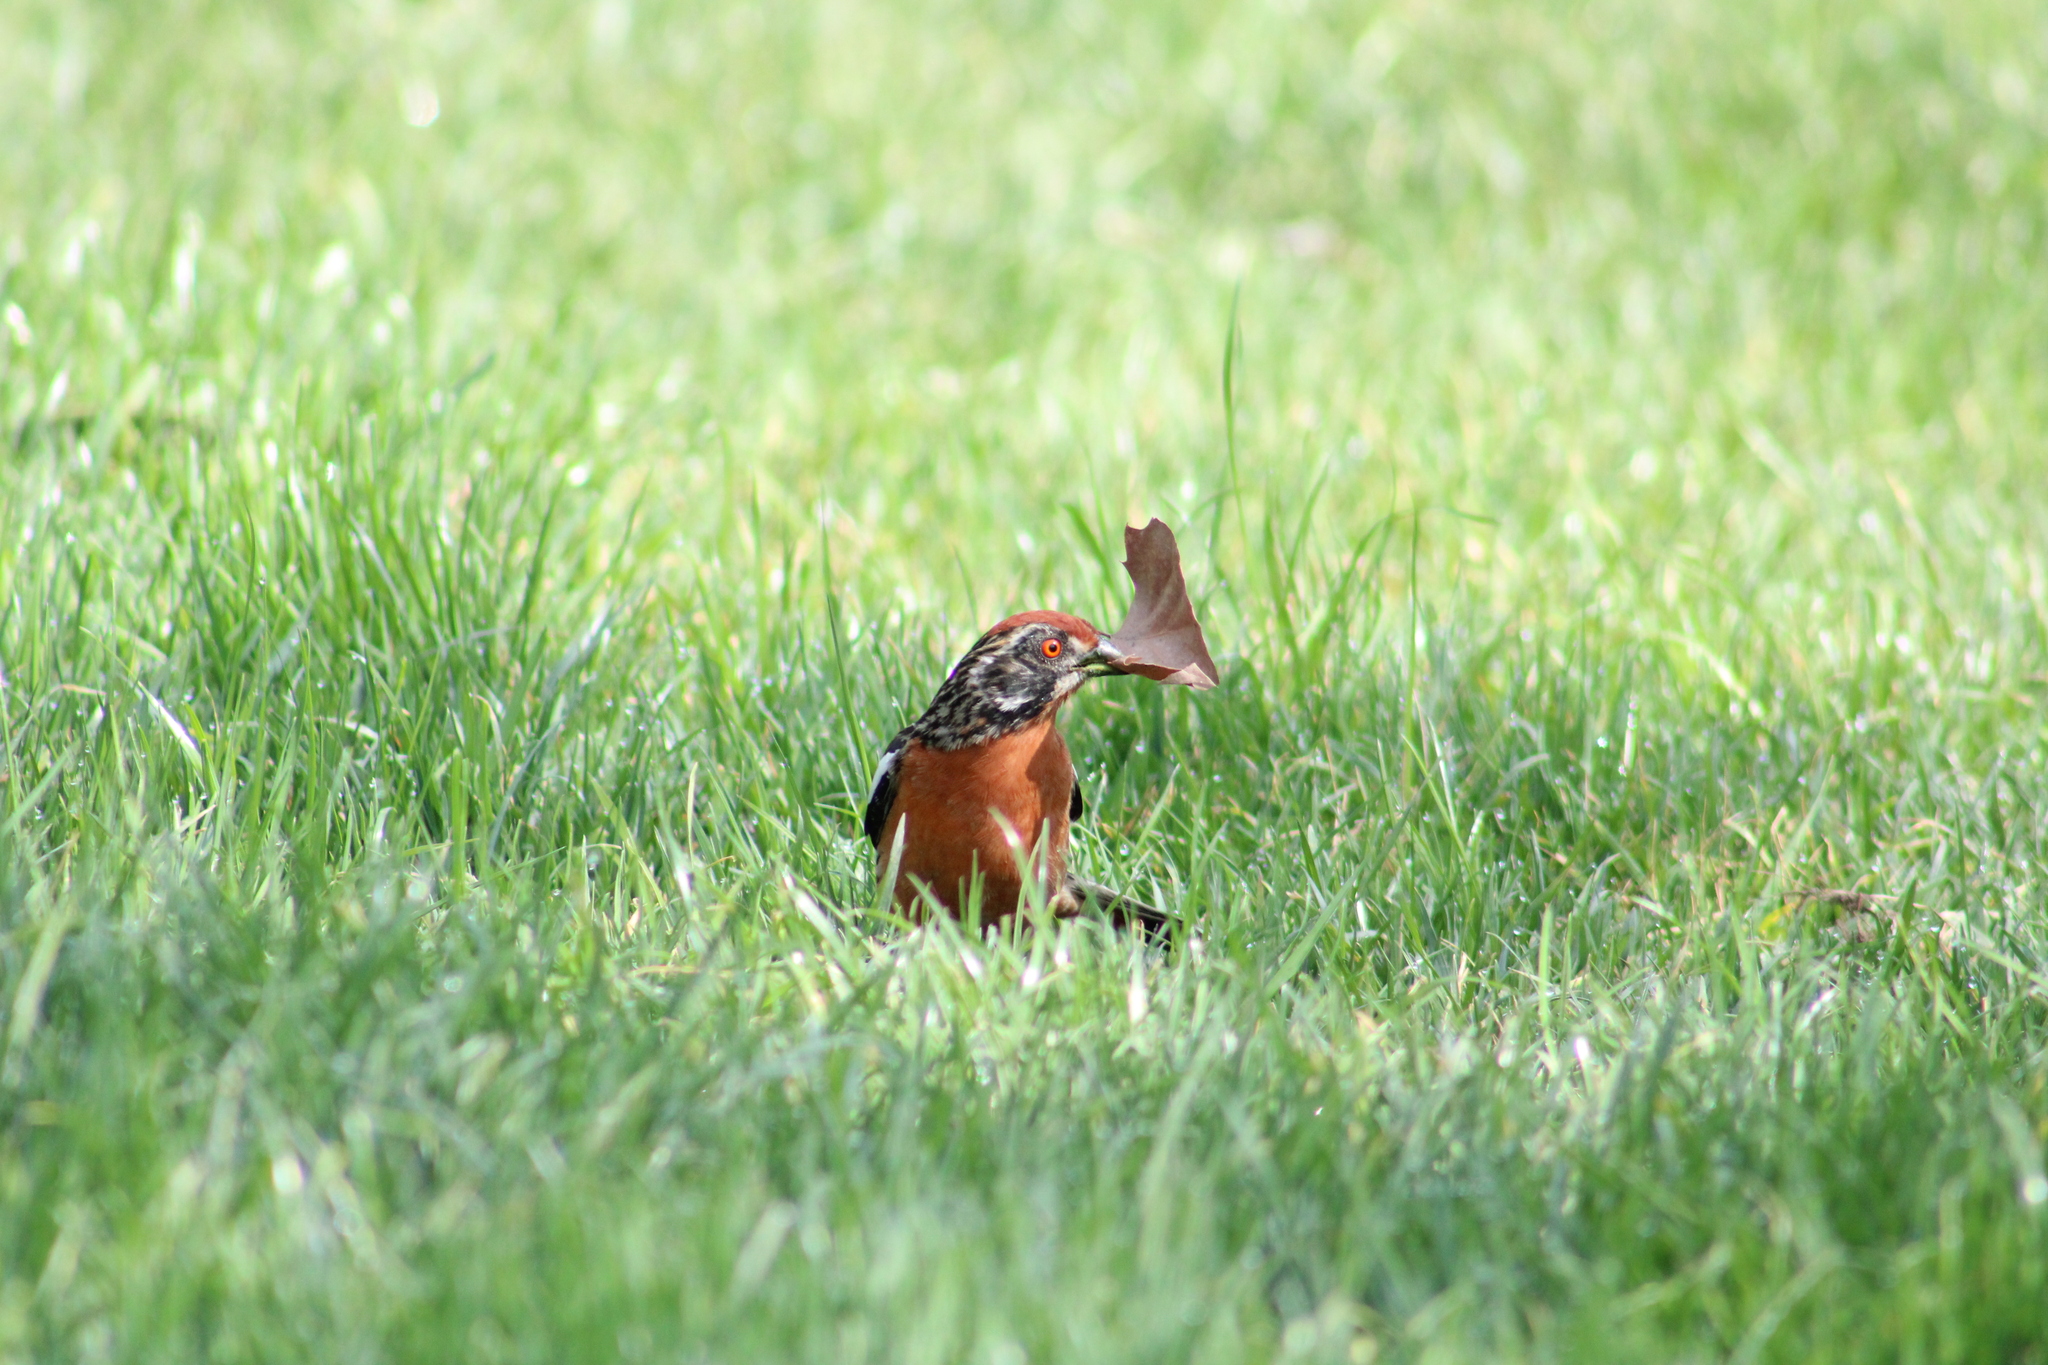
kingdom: Animalia
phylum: Chordata
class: Aves
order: Passeriformes
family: Cotingidae
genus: Phytotoma
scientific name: Phytotoma rara
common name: Rufous-tailed plantcutter
